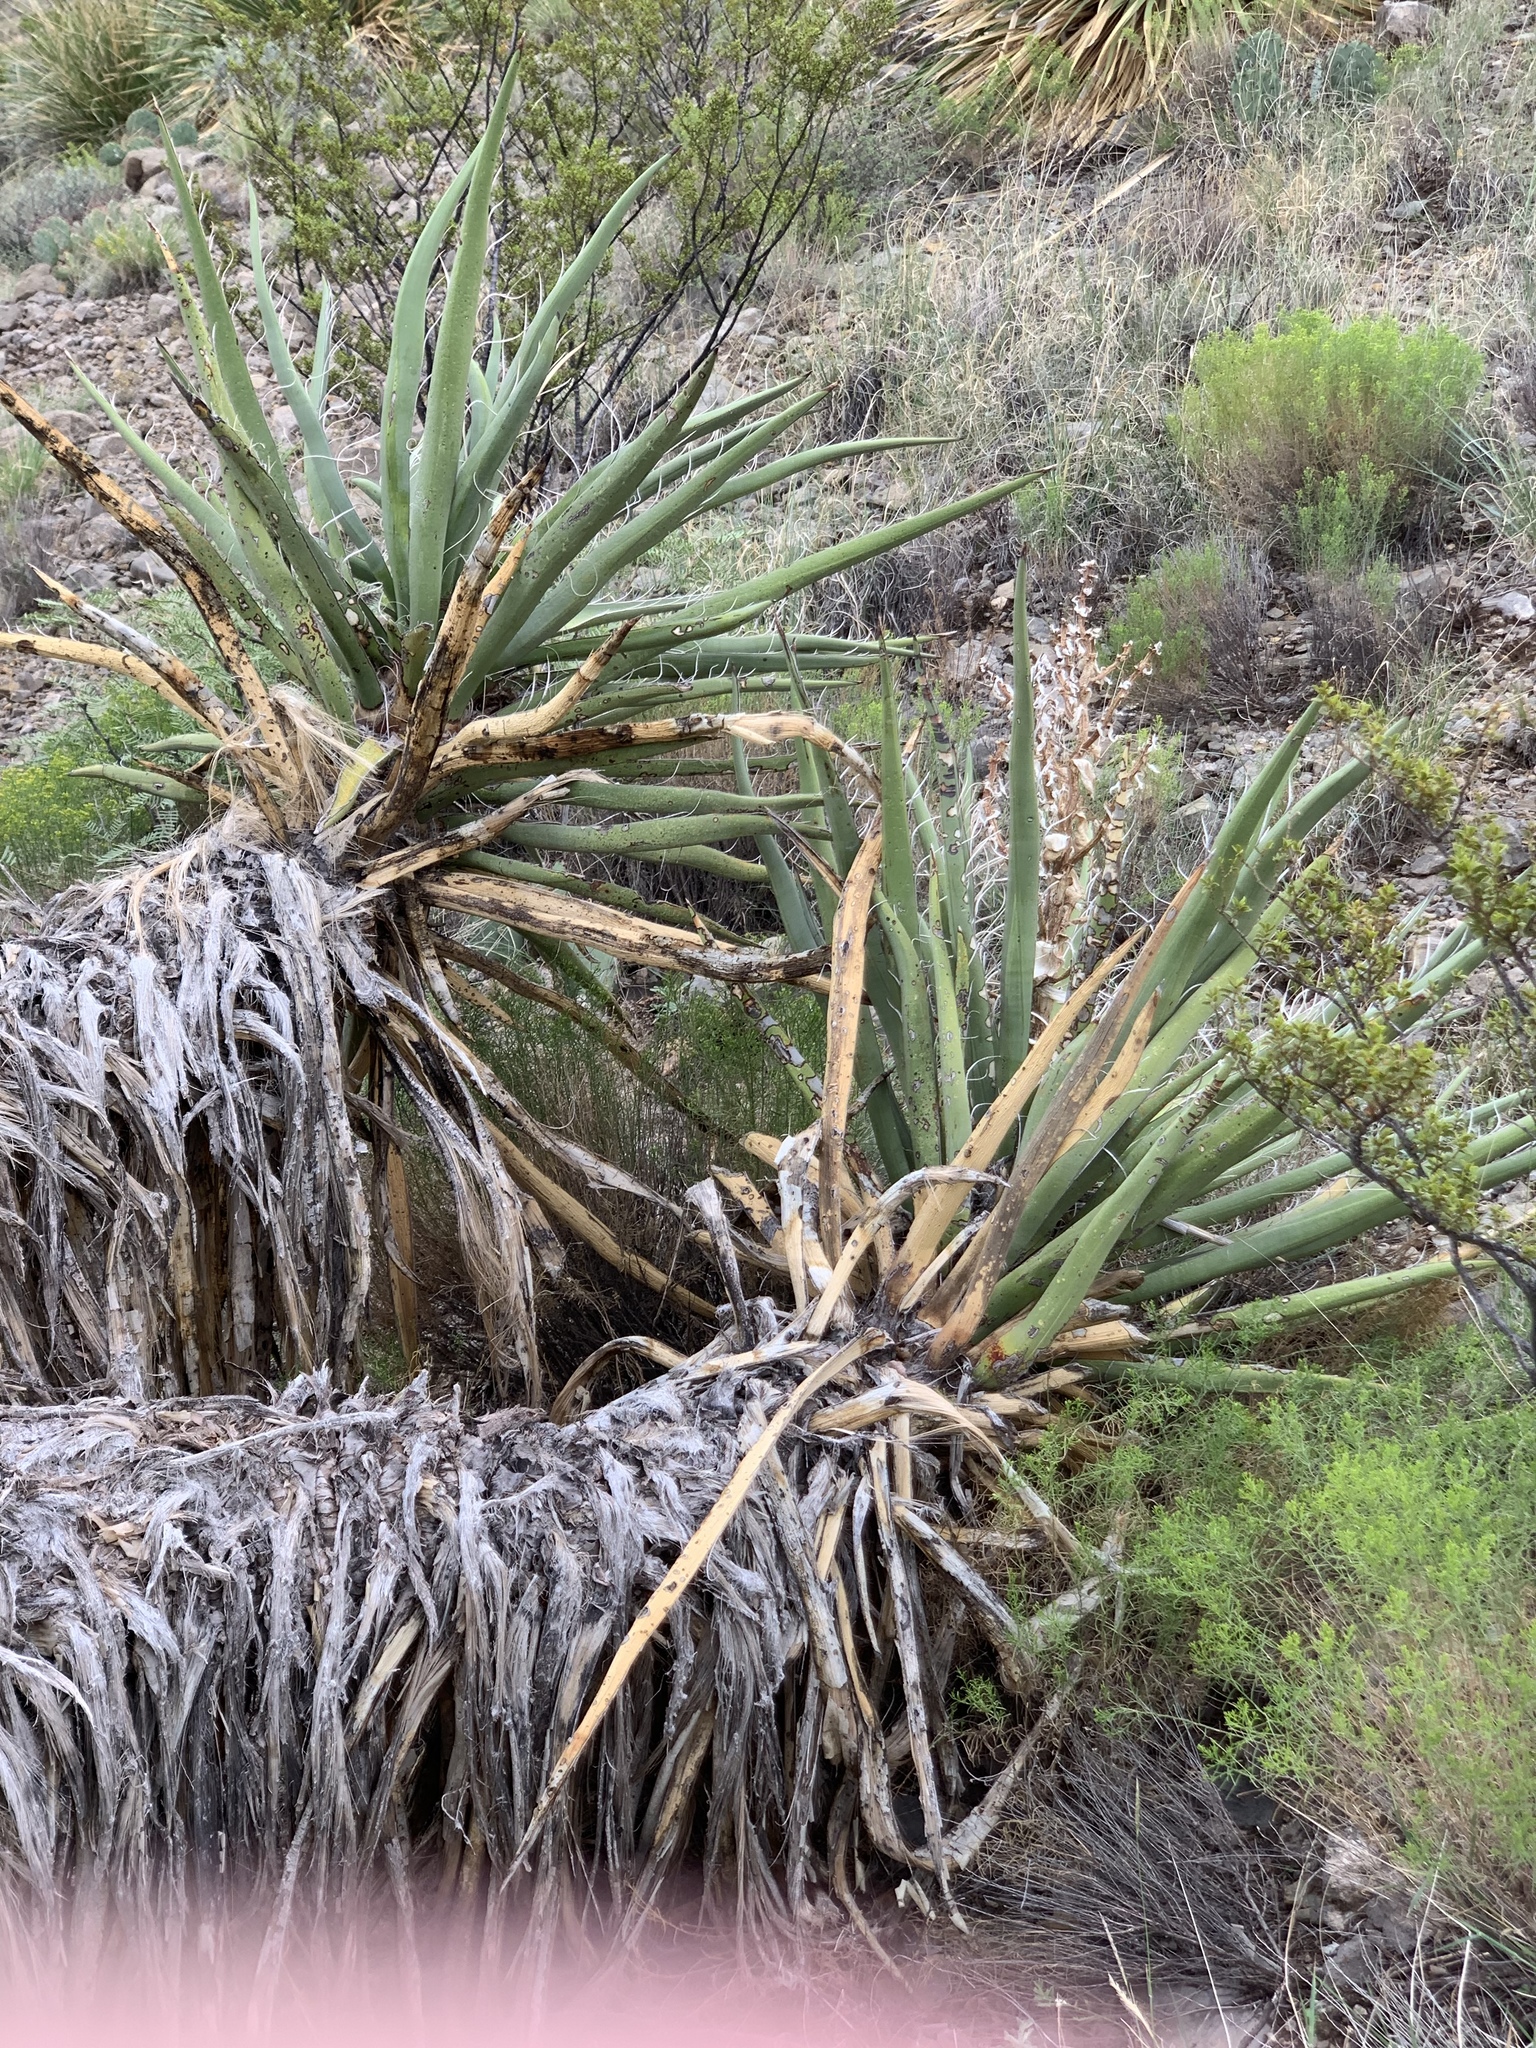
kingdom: Plantae
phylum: Tracheophyta
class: Liliopsida
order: Asparagales
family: Asparagaceae
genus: Yucca
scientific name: Yucca treculiana
